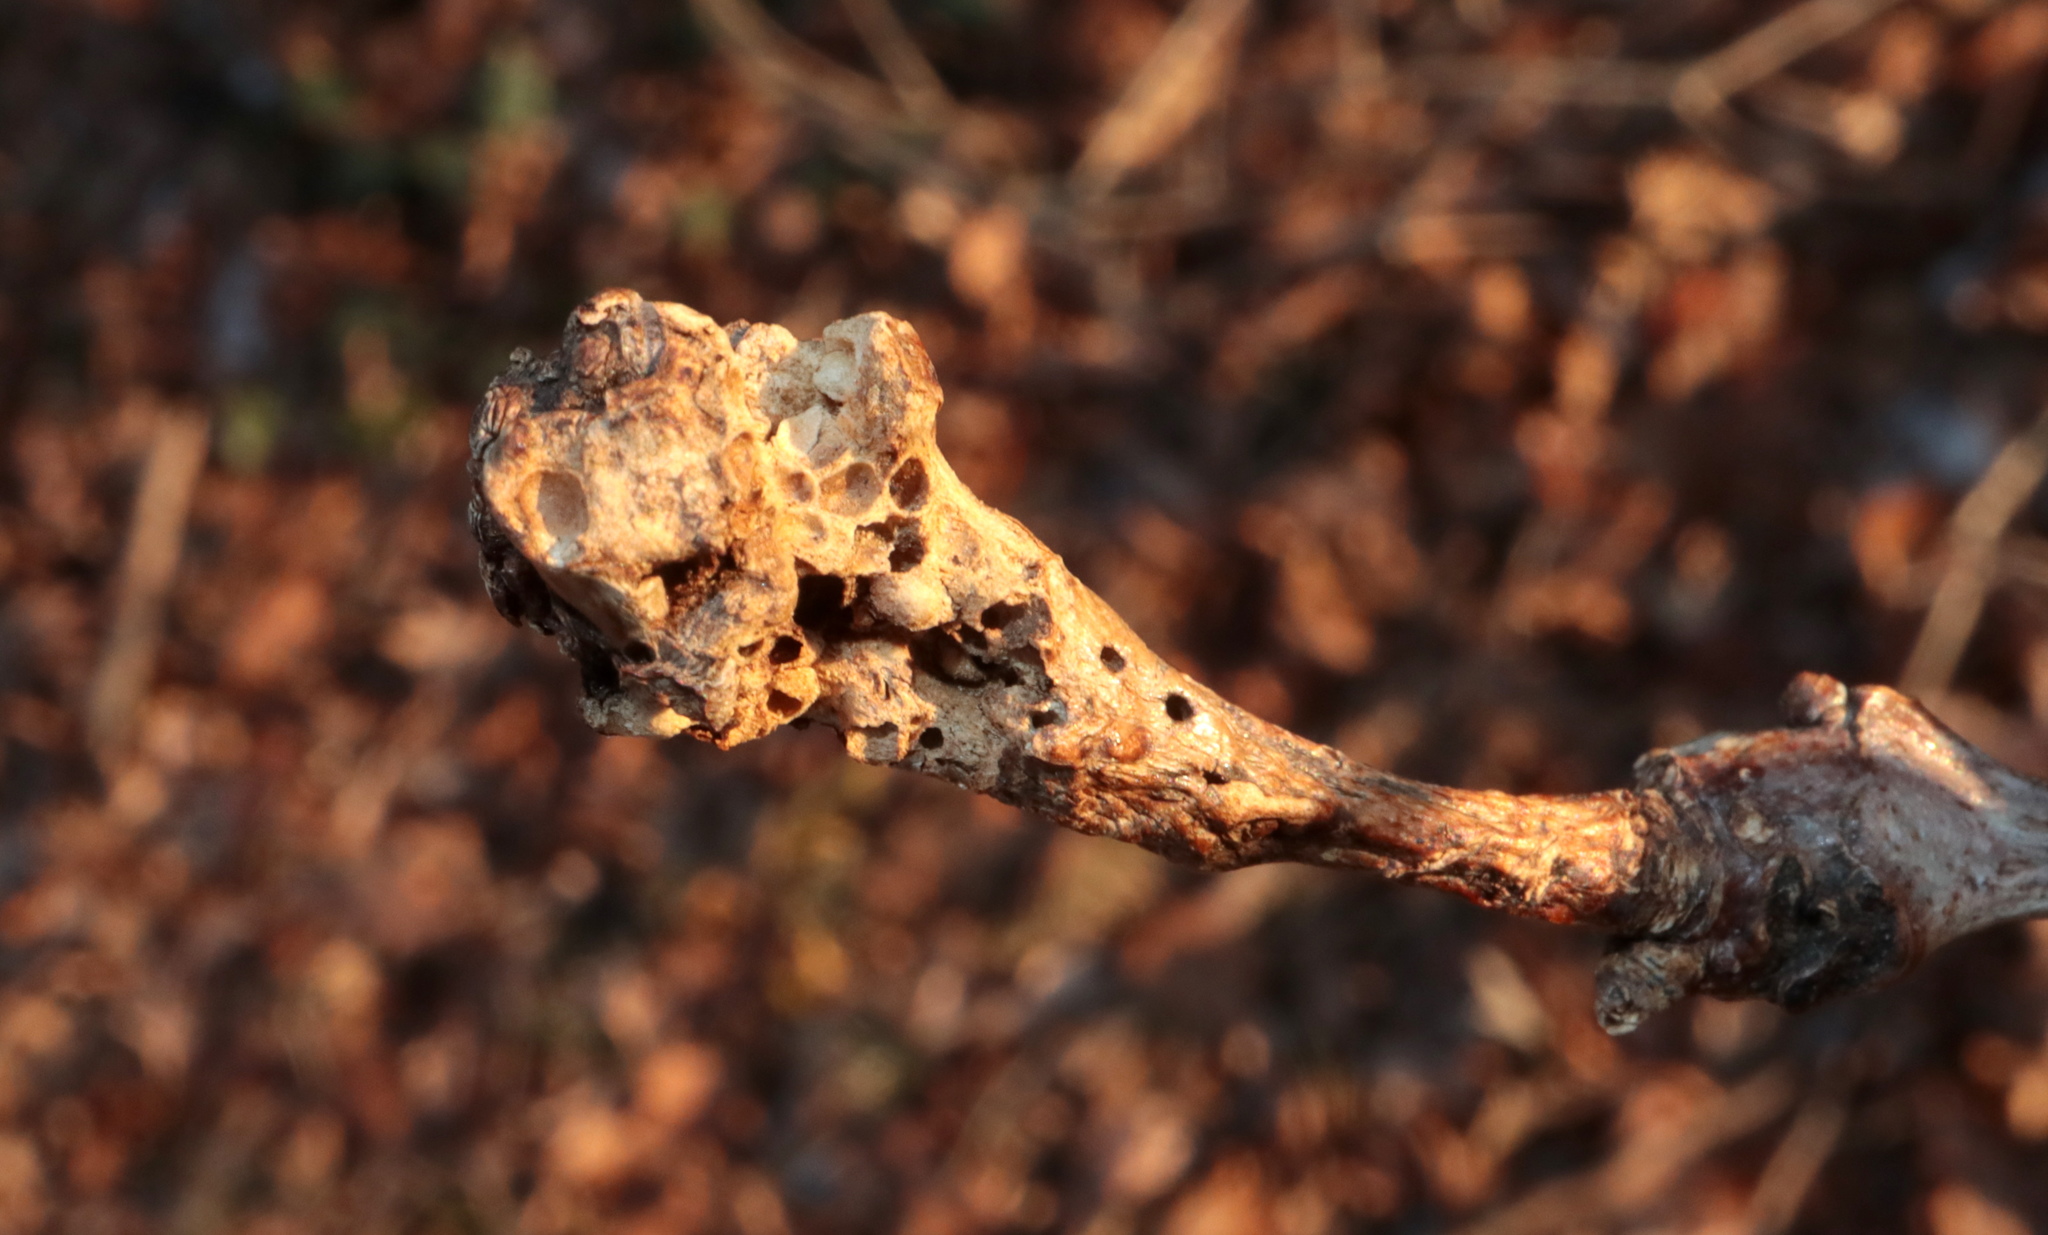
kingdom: Animalia
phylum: Arthropoda
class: Insecta
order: Hymenoptera
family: Cynipidae
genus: Neuroterus
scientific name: Neuroterus quercusbaccarum
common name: Common spangle gall
